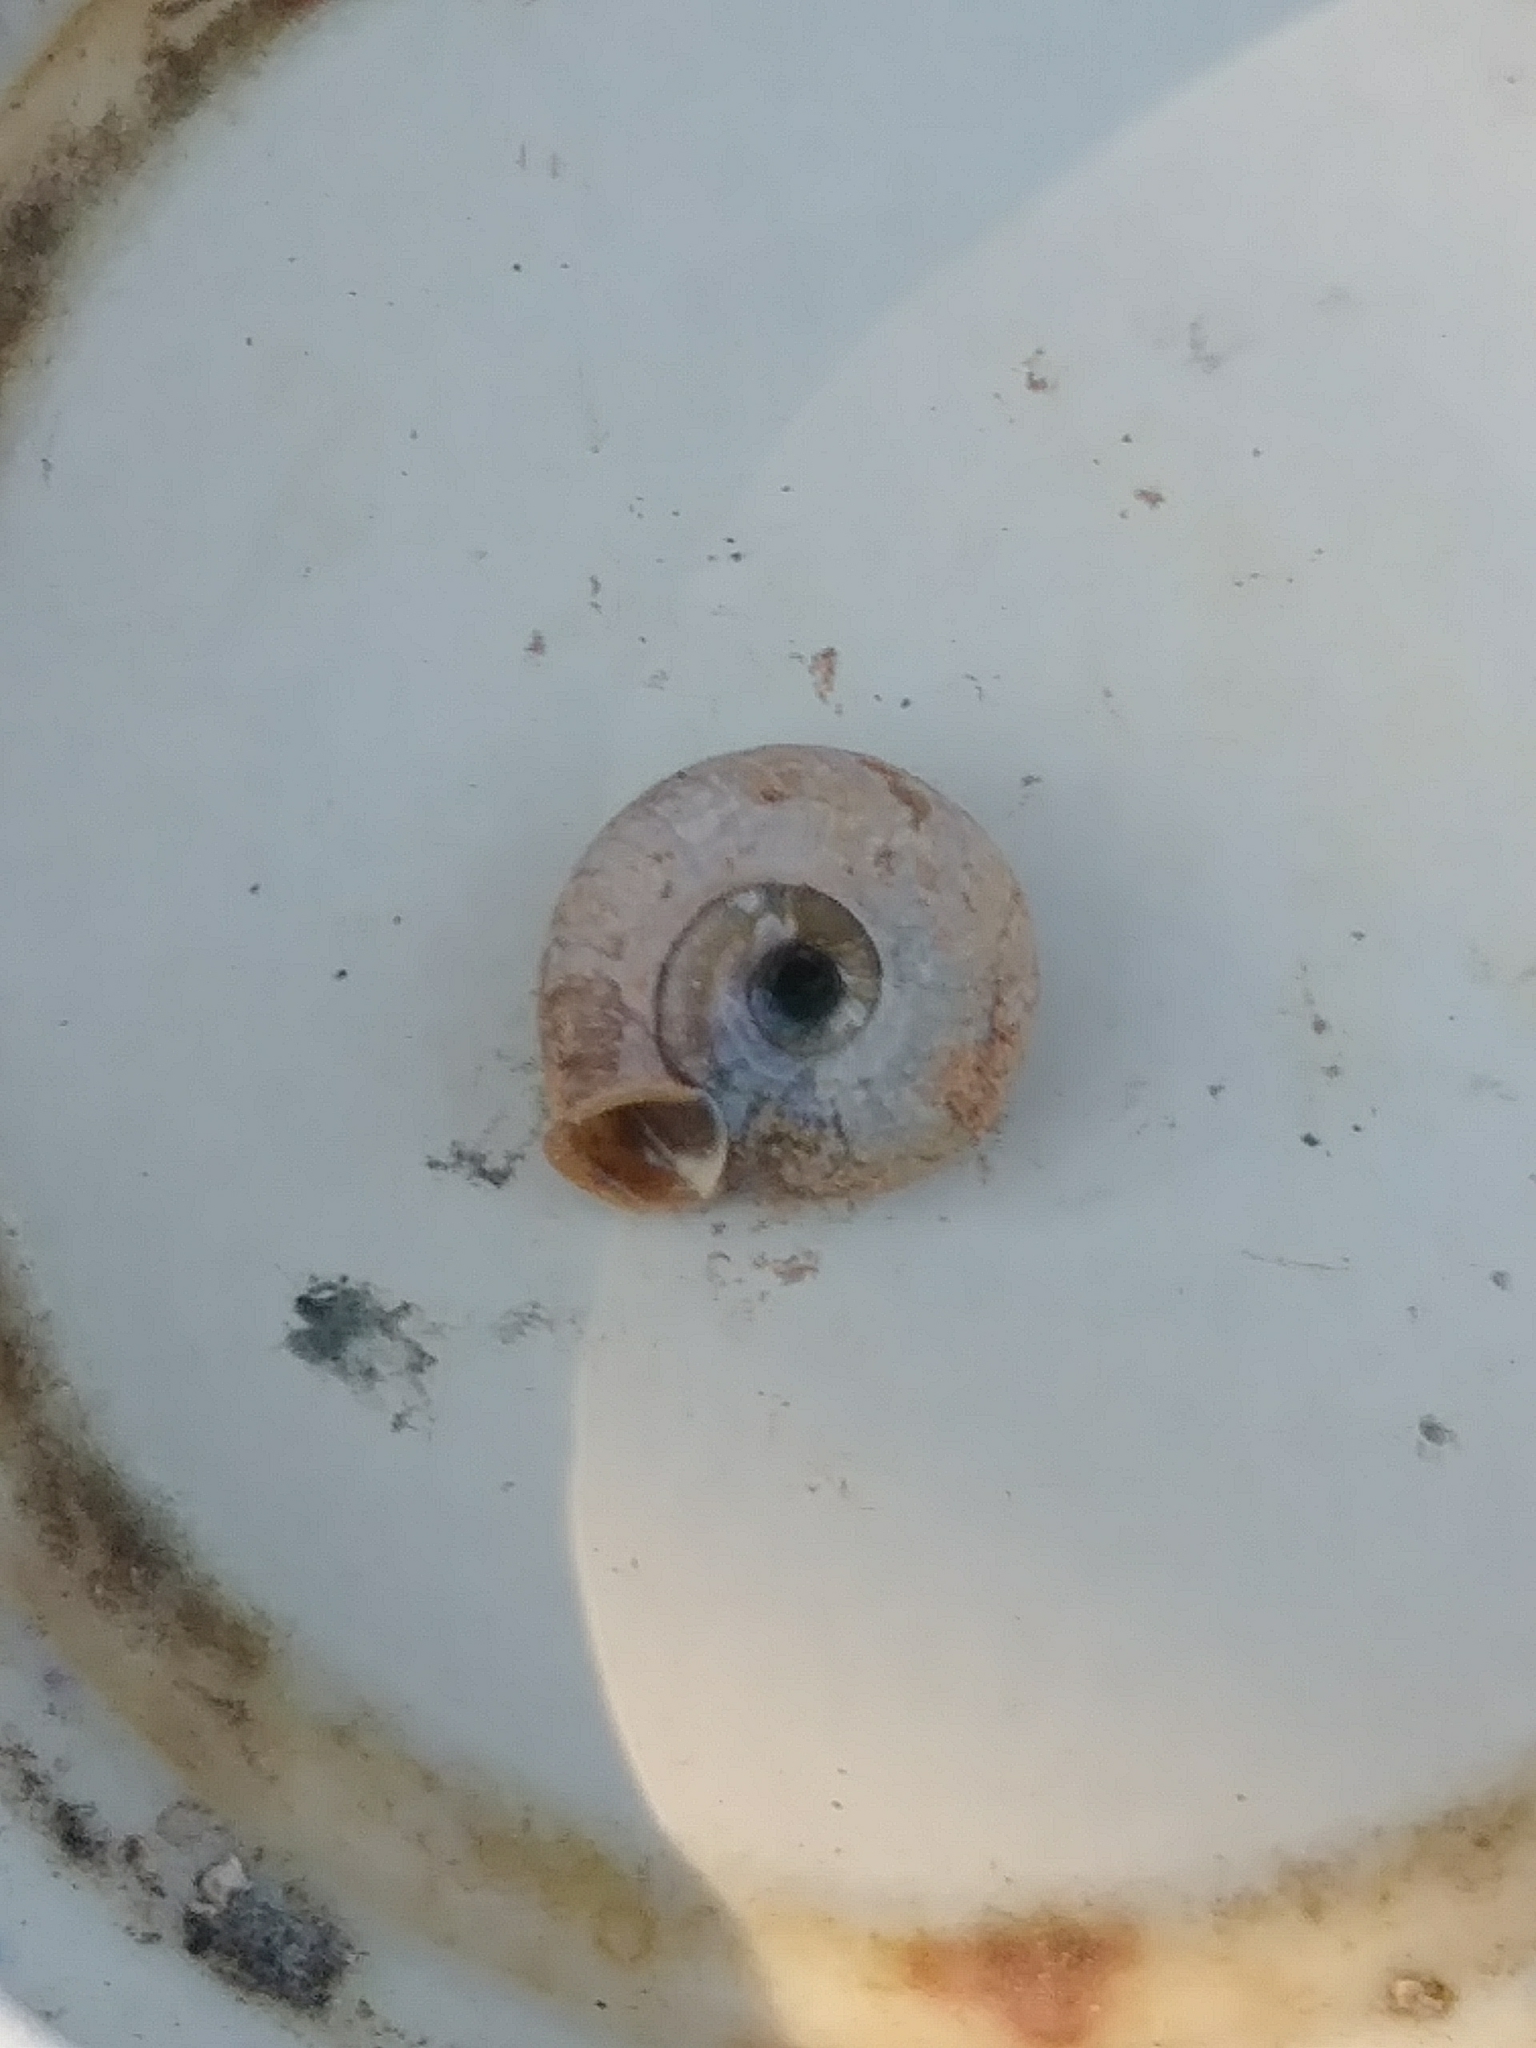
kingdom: Animalia
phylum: Mollusca
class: Gastropoda
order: Stylommatophora
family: Polygyridae
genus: Polygyra
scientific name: Polygyra cereolus
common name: Southern flatcone snail
